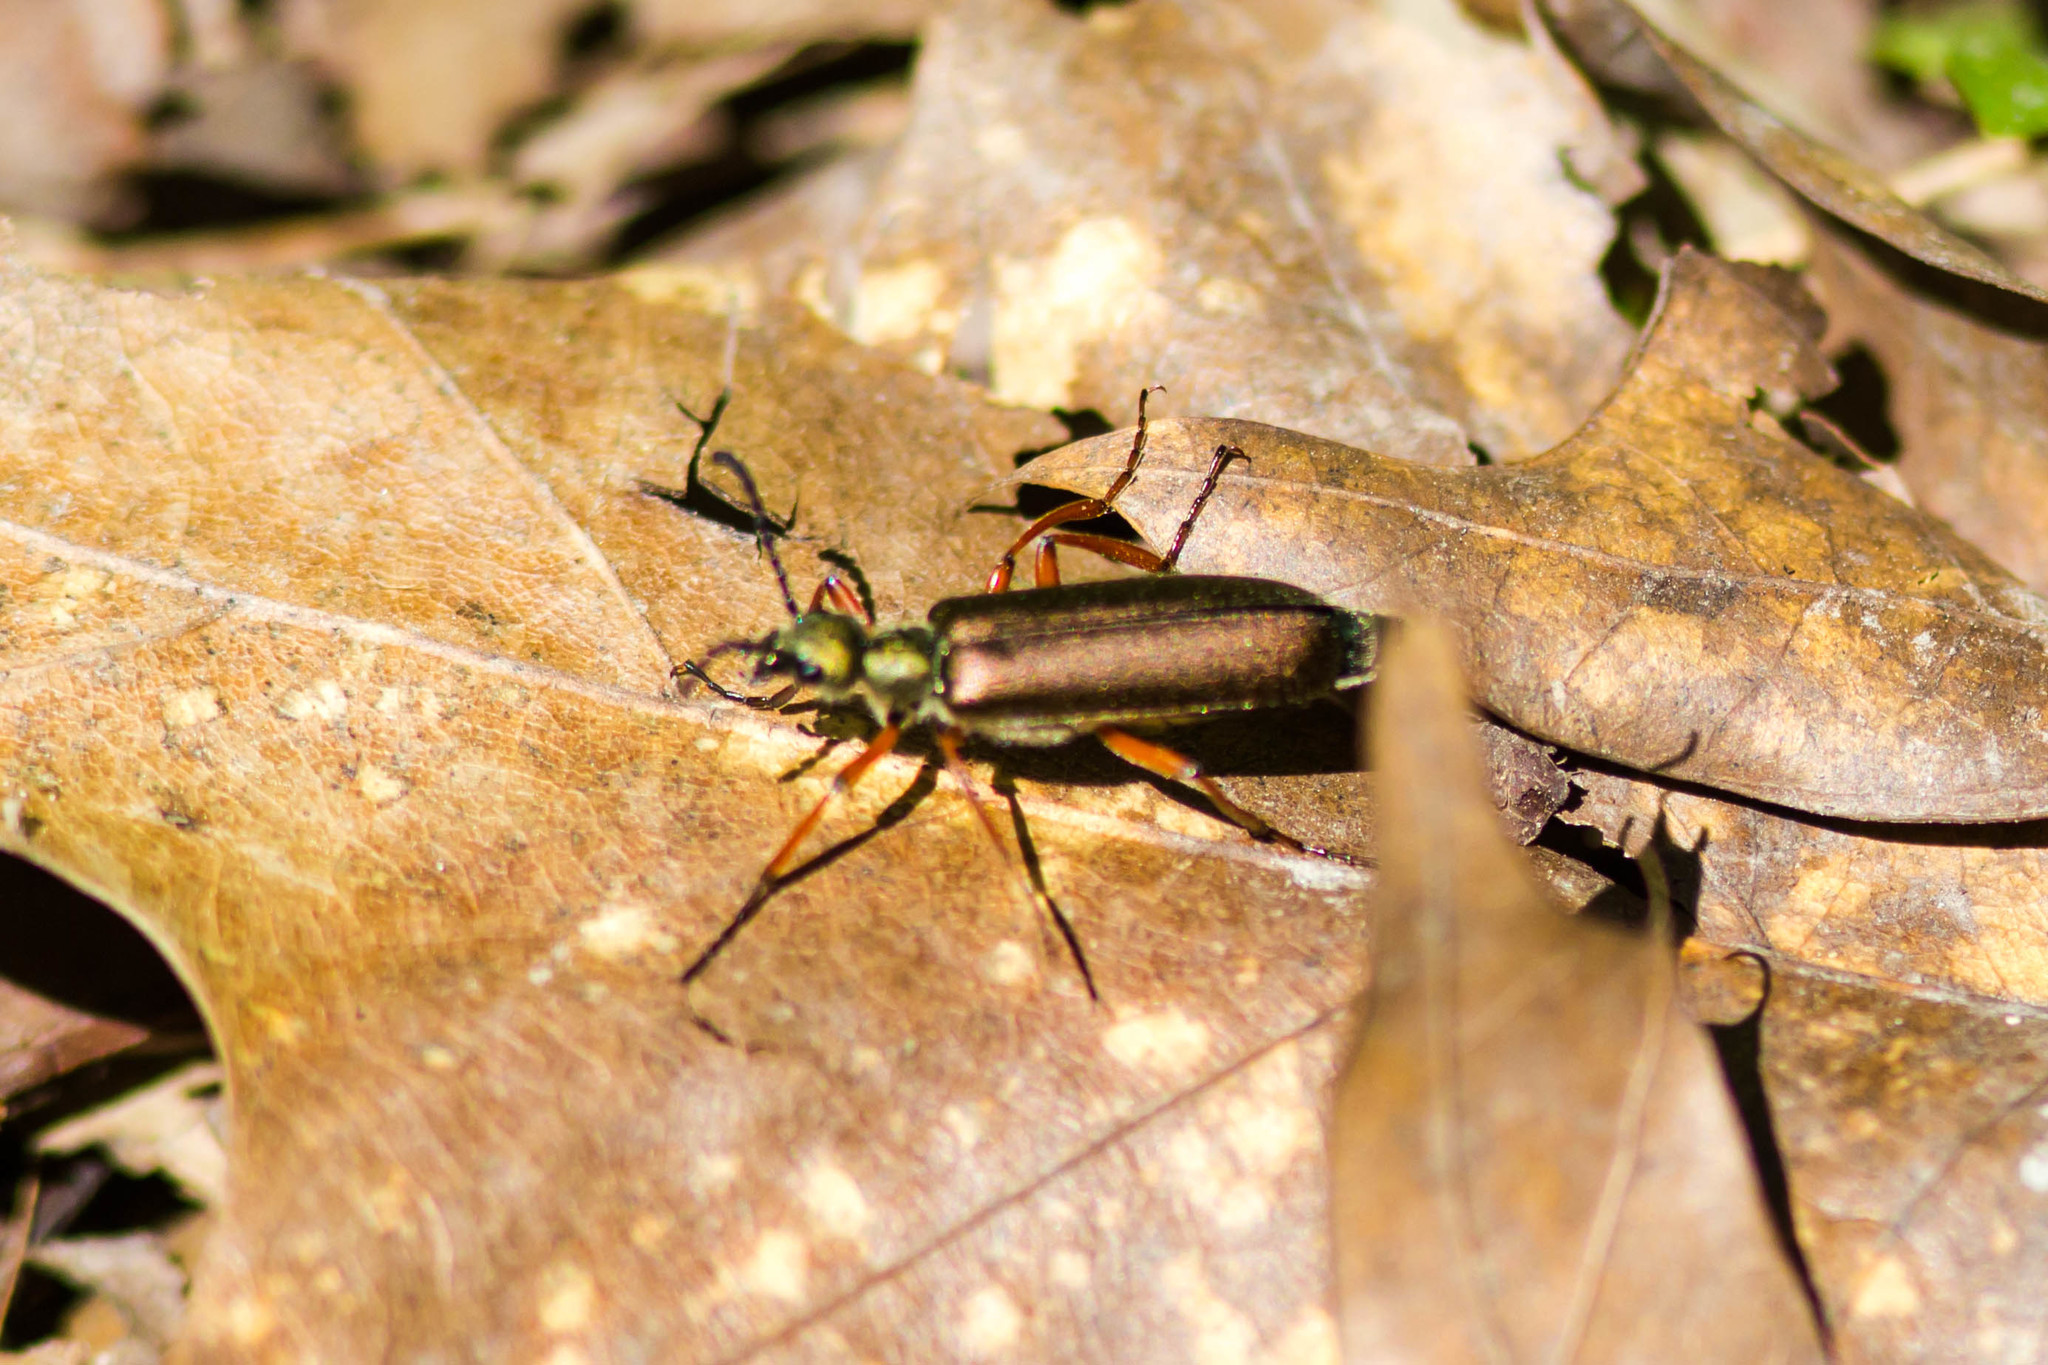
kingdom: Animalia
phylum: Arthropoda
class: Insecta
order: Coleoptera
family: Meloidae
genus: Lytta
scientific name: Lytta aenea
